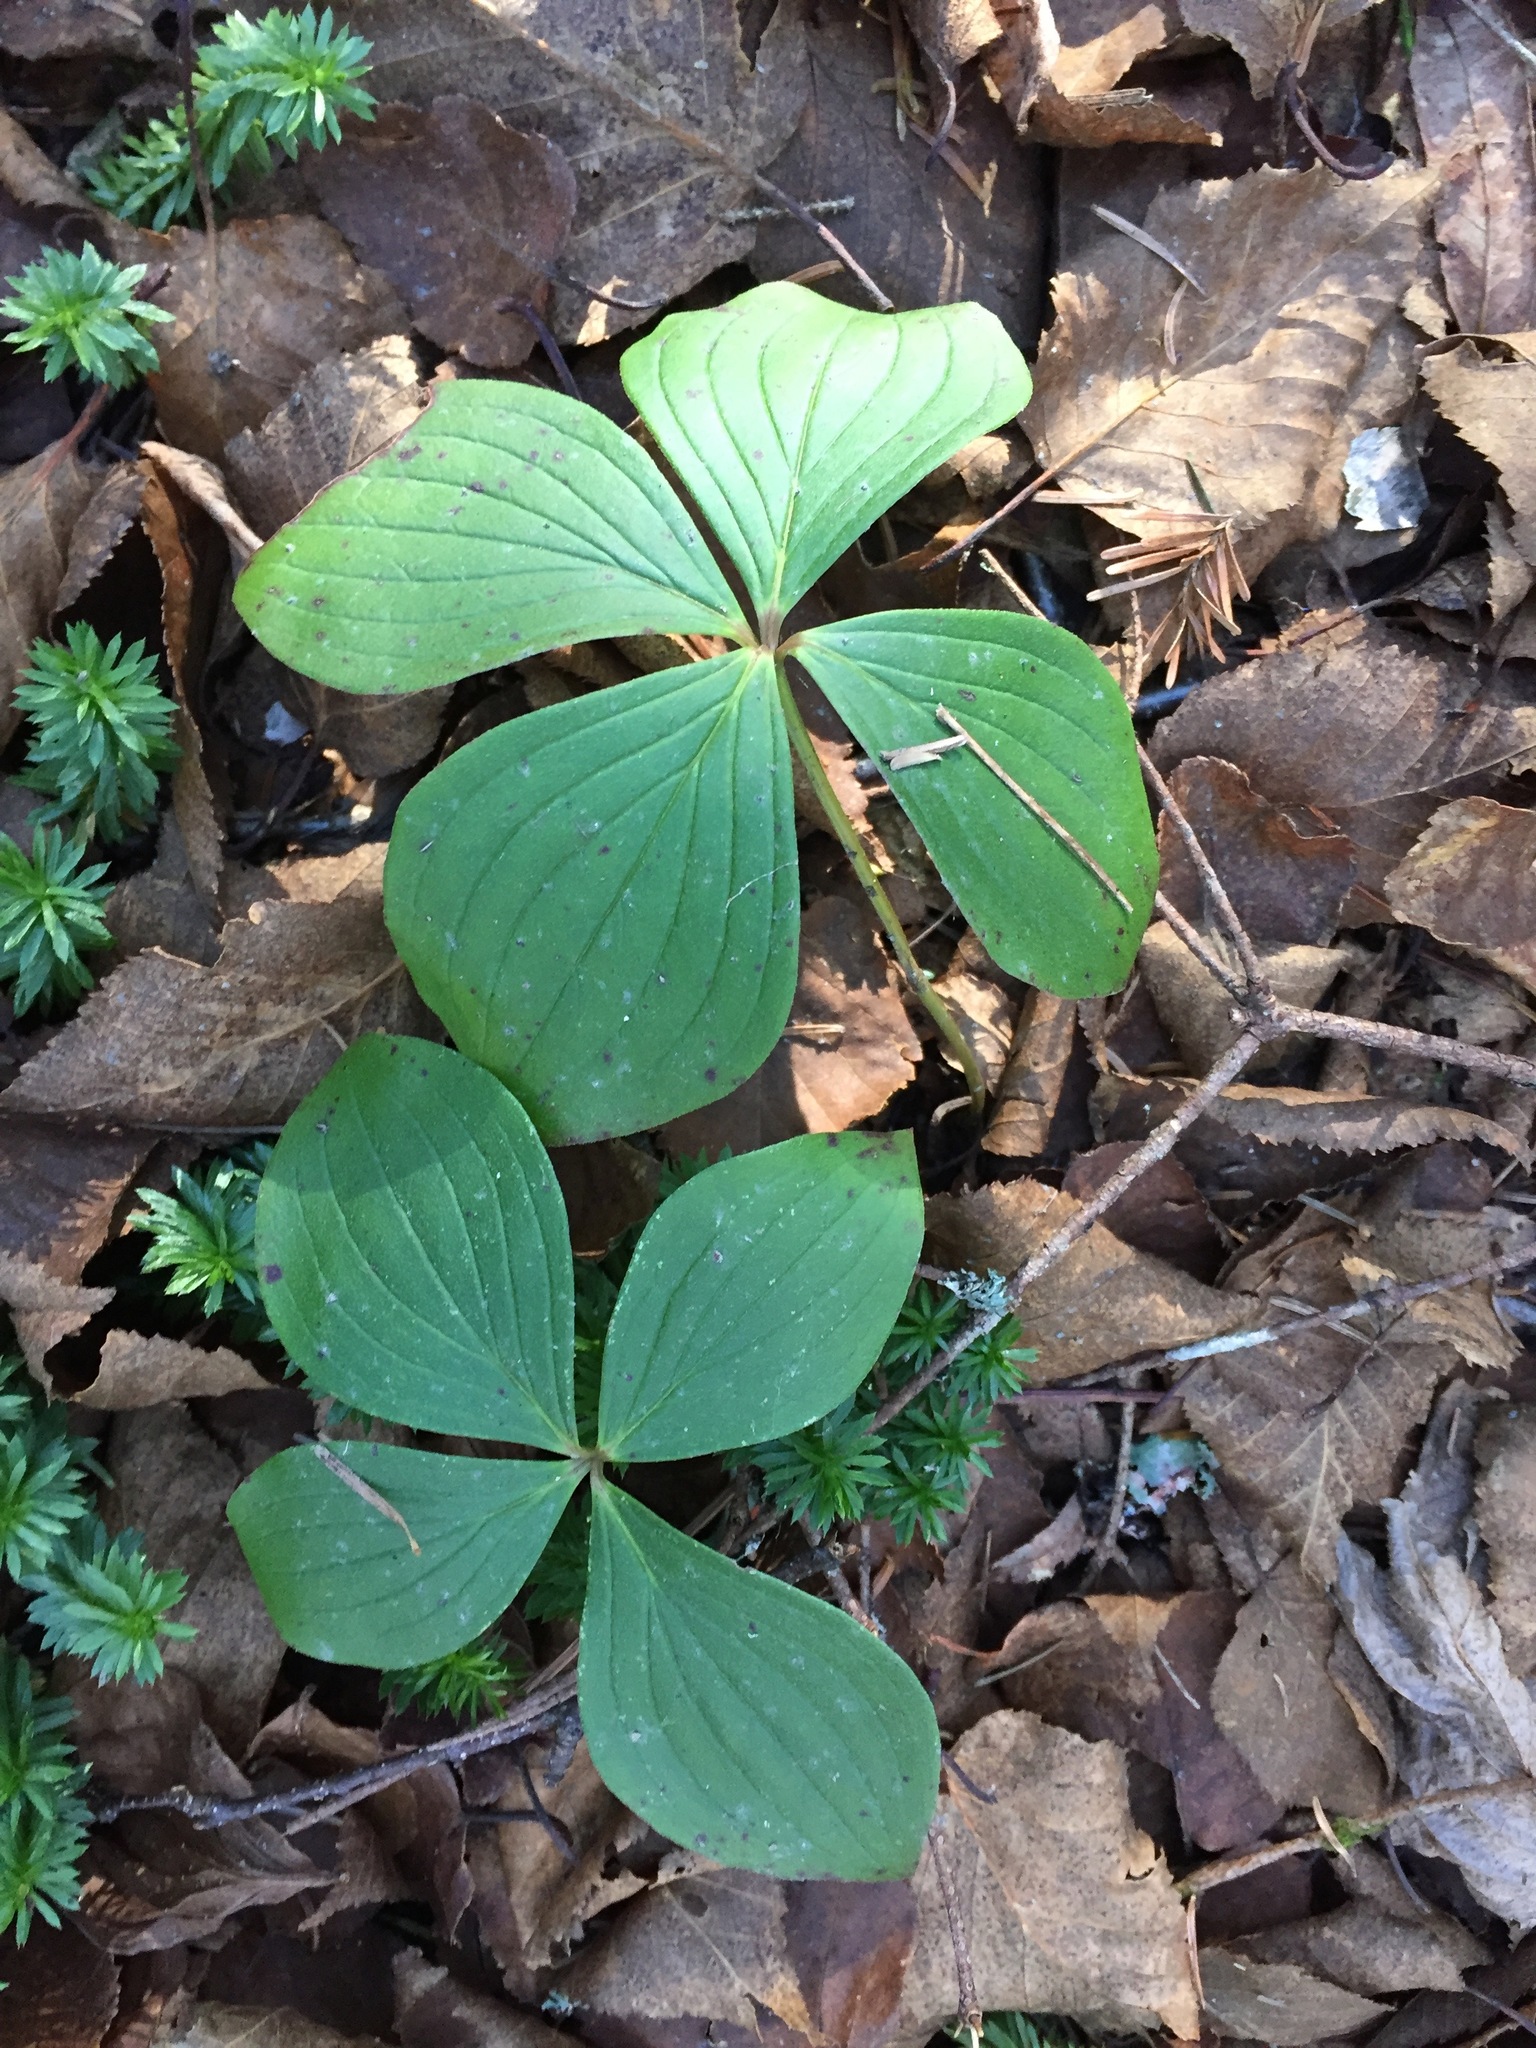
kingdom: Plantae
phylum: Tracheophyta
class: Magnoliopsida
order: Cornales
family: Cornaceae
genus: Cornus
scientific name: Cornus canadensis
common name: Creeping dogwood
